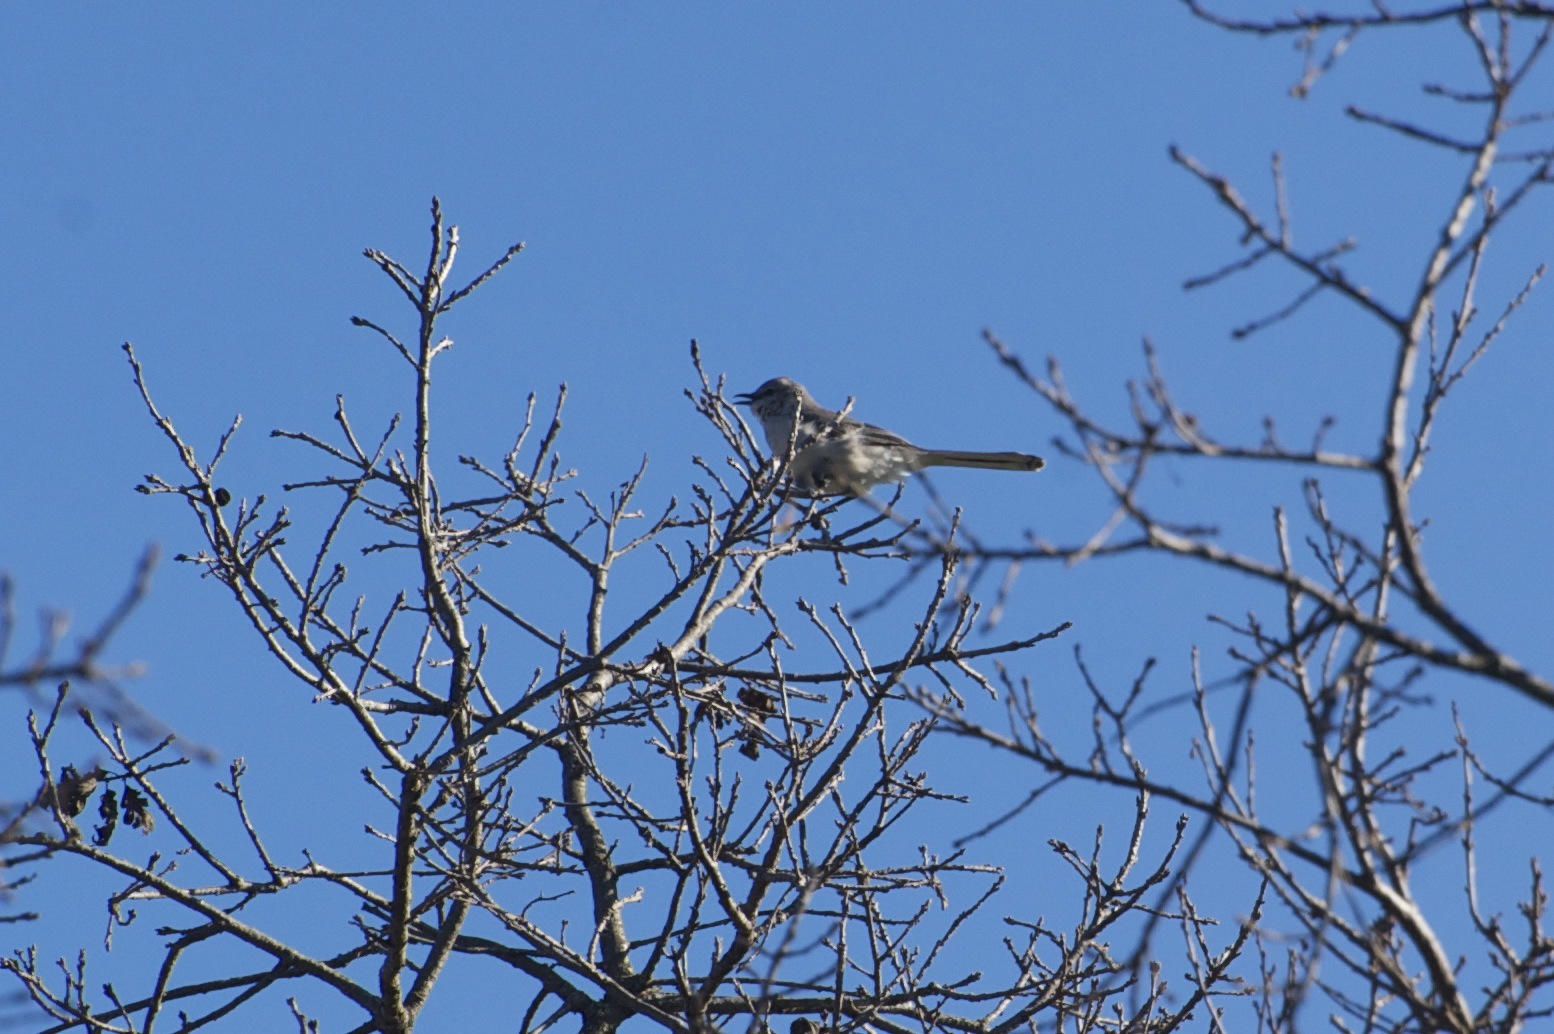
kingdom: Animalia
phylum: Chordata
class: Aves
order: Passeriformes
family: Mimidae
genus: Mimus
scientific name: Mimus polyglottos
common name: Northern mockingbird
